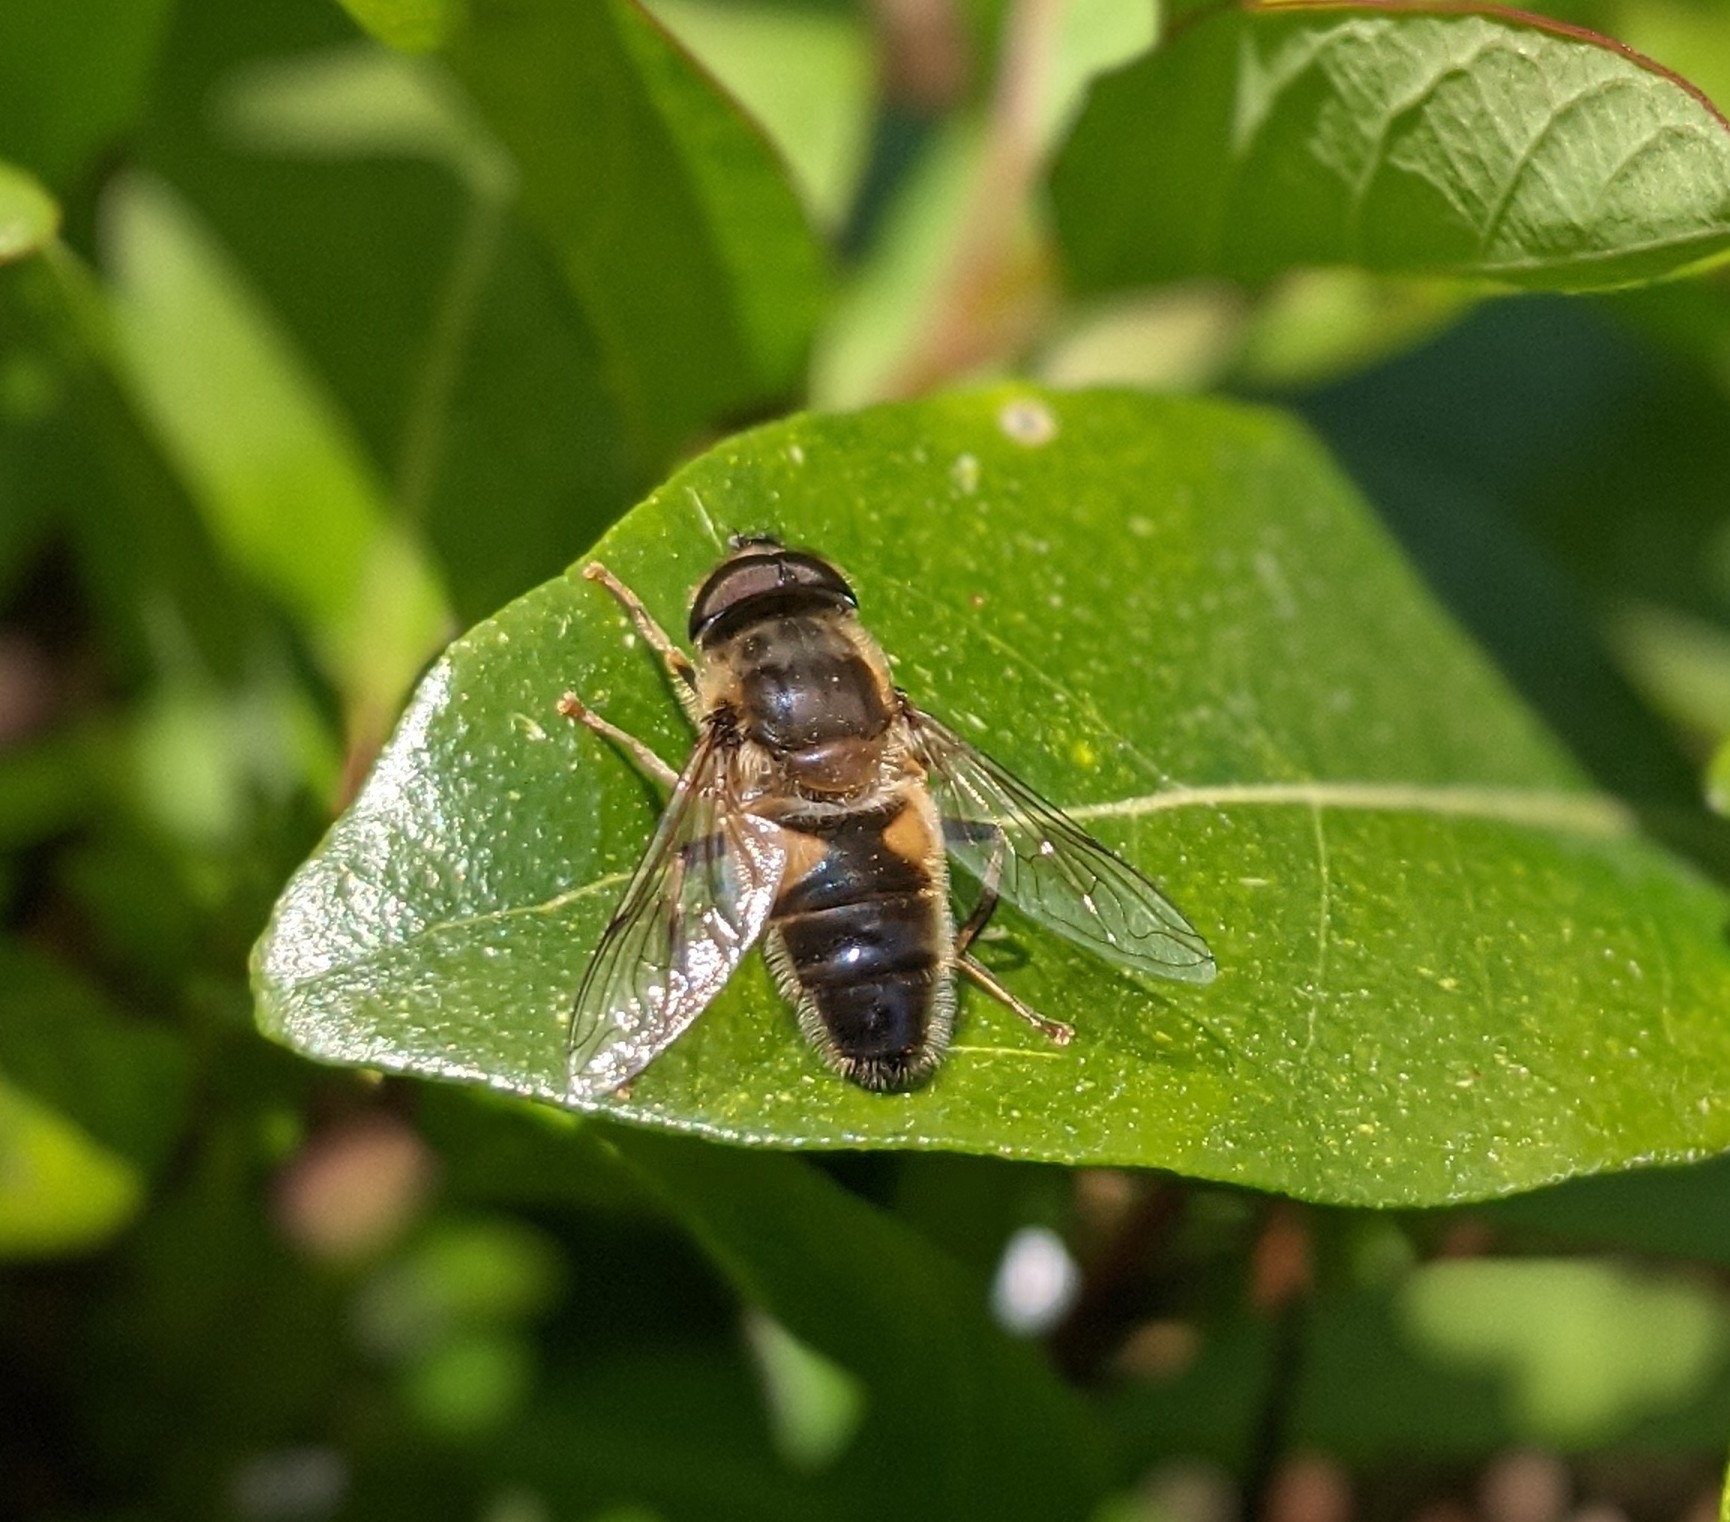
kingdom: Animalia
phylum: Arthropoda
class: Insecta
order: Diptera
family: Syrphidae
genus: Eristalis
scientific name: Eristalis pertinax
